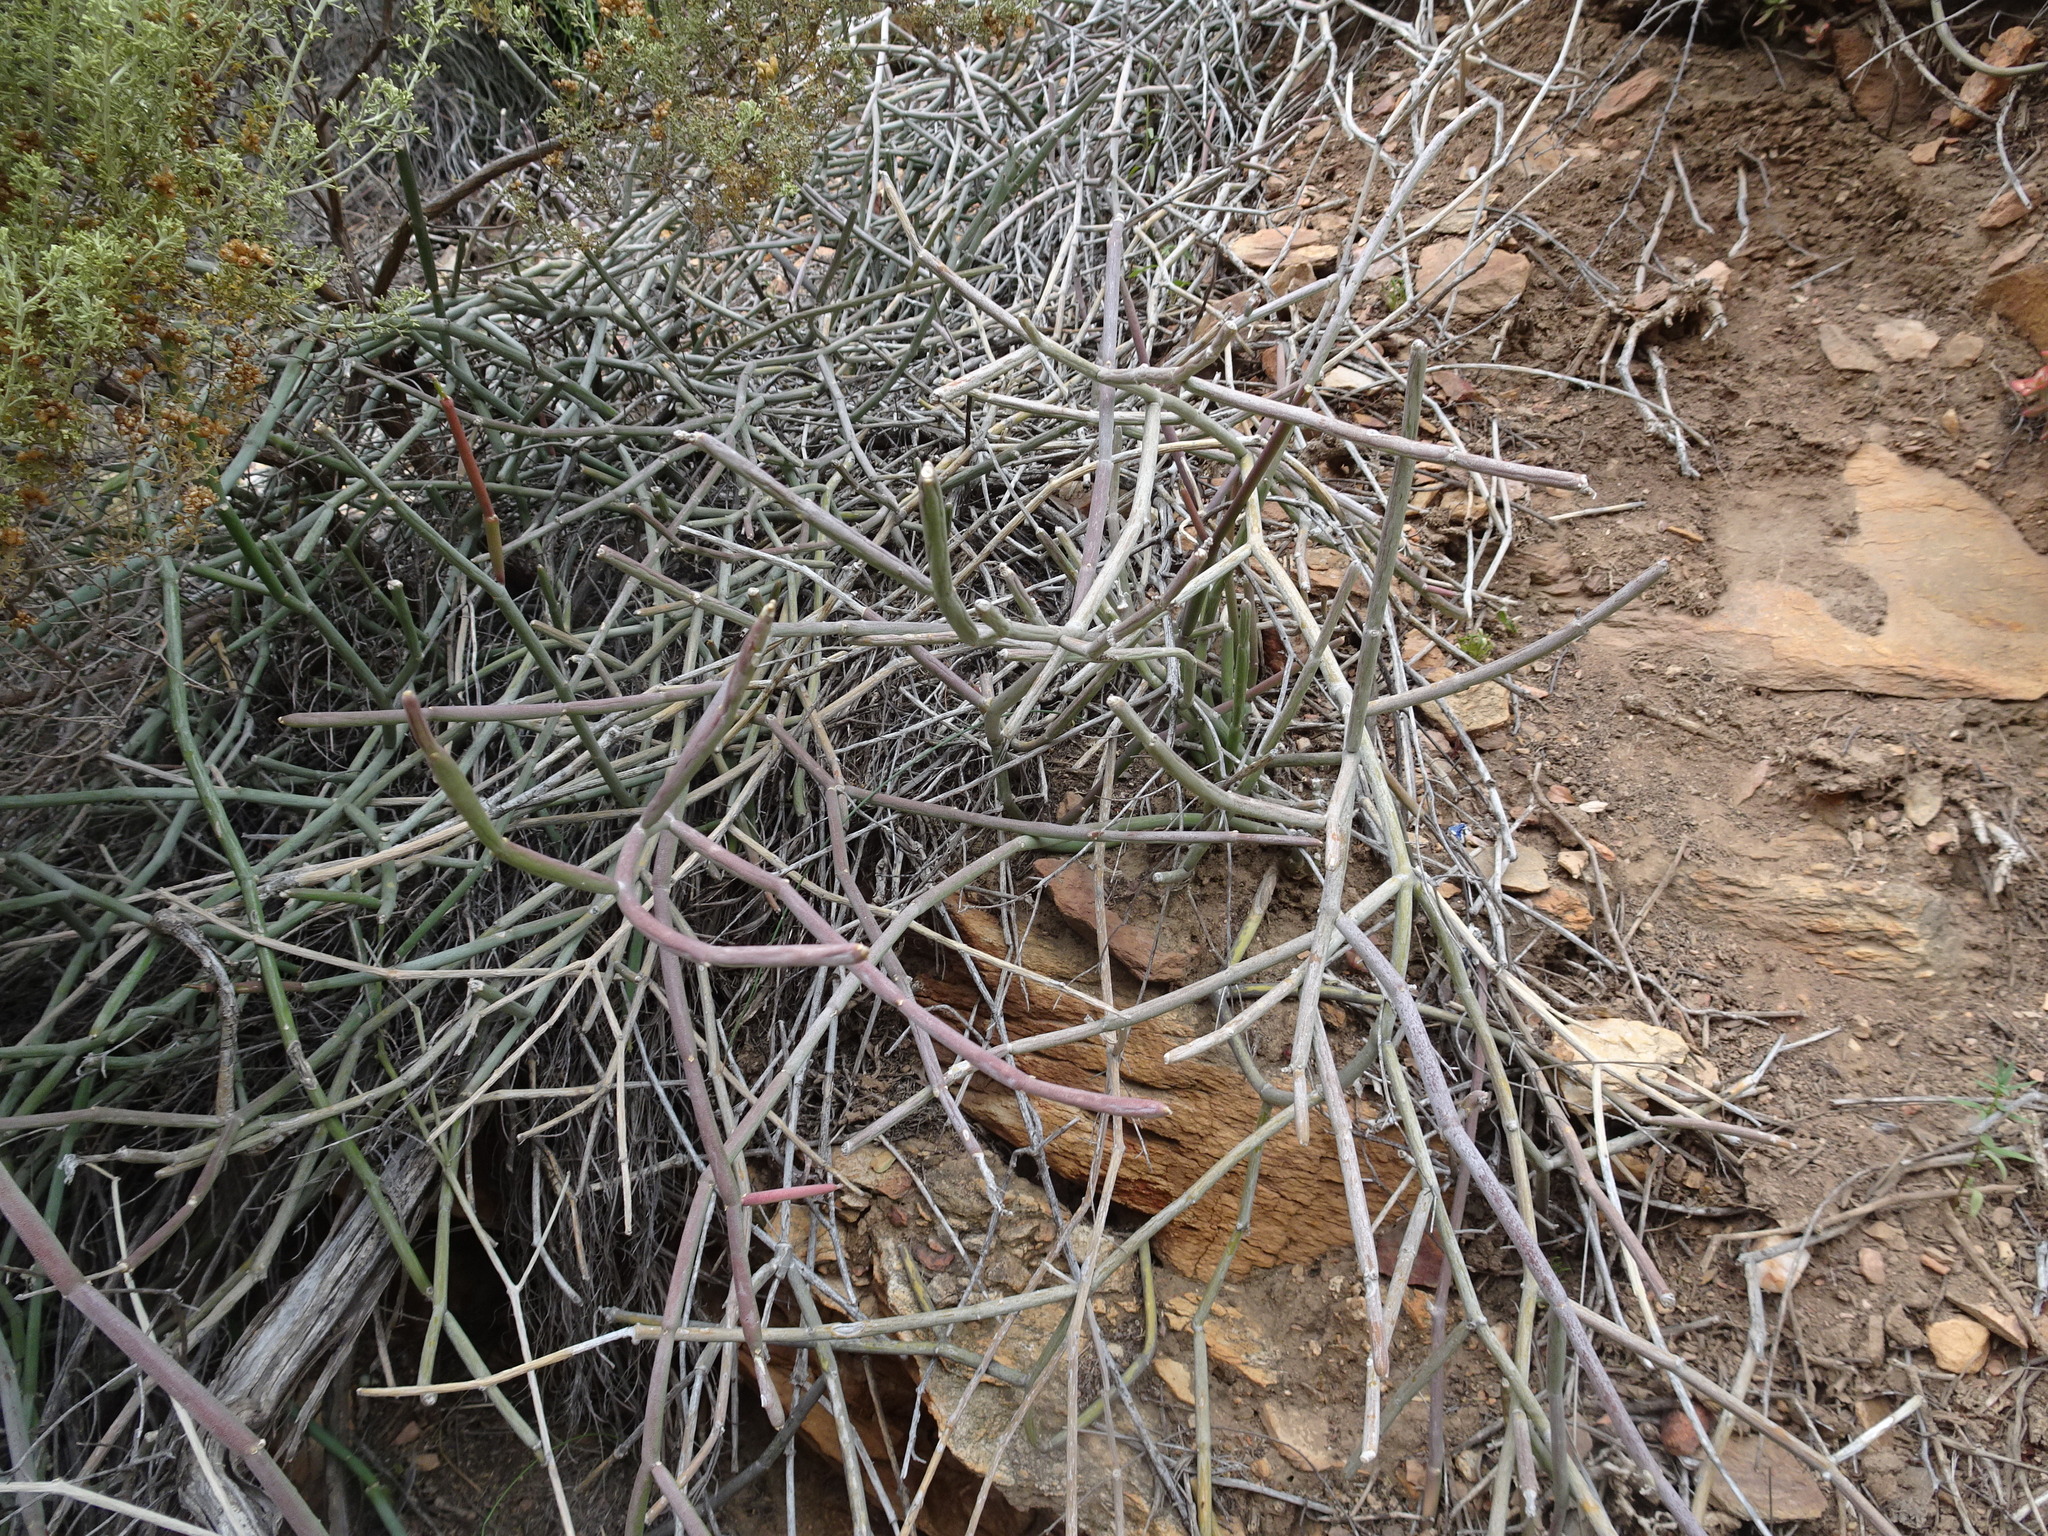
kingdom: Plantae
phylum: Tracheophyta
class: Magnoliopsida
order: Gentianales
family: Apocynaceae
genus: Cynanchum
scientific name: Cynanchum viminale
